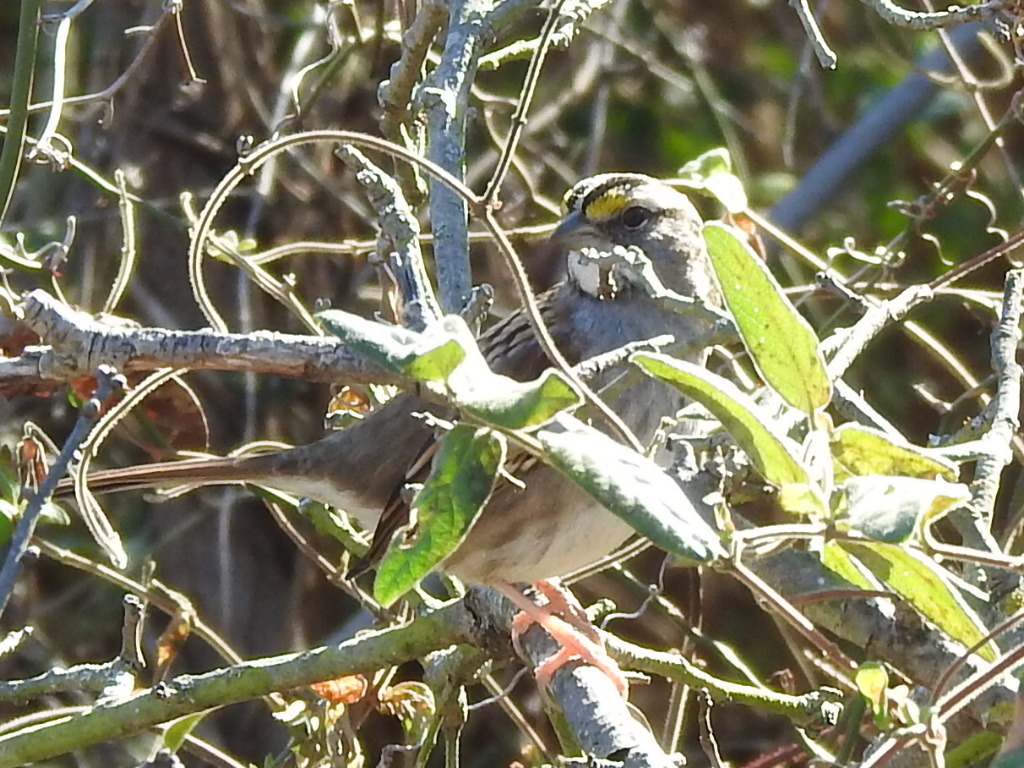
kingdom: Animalia
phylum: Chordata
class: Aves
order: Passeriformes
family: Passerellidae
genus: Zonotrichia
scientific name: Zonotrichia albicollis
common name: White-throated sparrow
